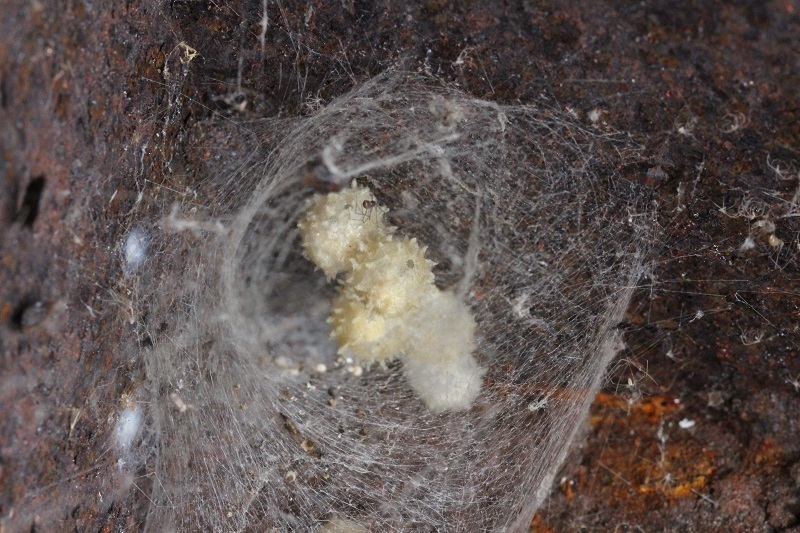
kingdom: Animalia
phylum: Arthropoda
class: Arachnida
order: Araneae
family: Theridiidae
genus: Latrodectus
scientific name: Latrodectus geometricus
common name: Brown widow spider
